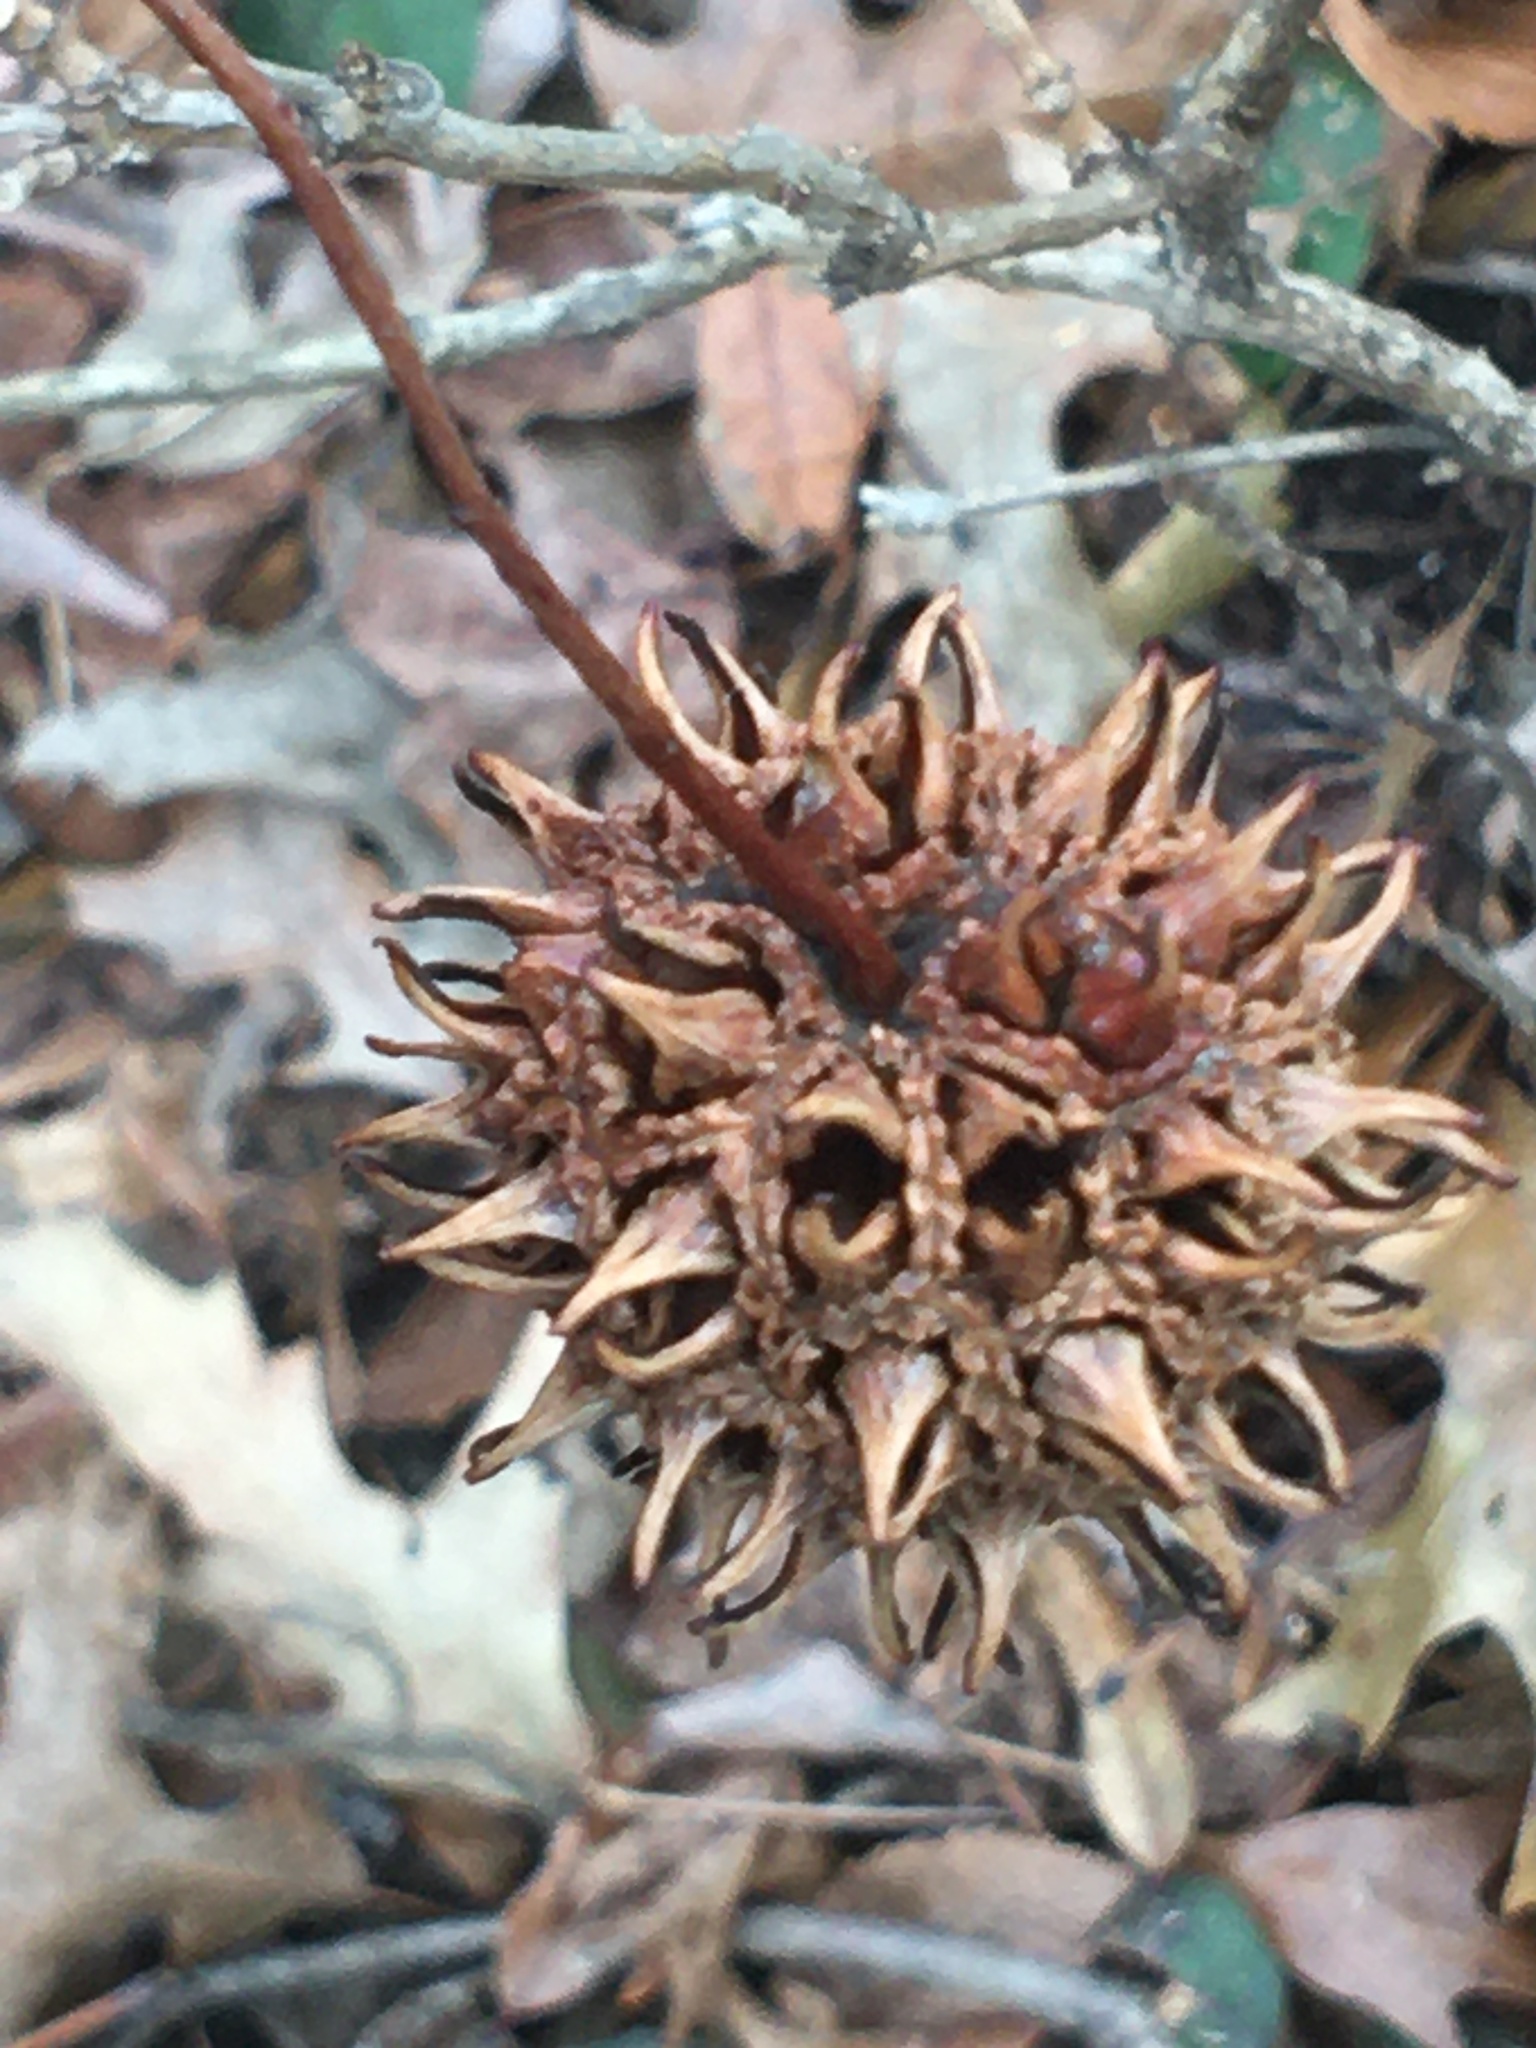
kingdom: Plantae
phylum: Tracheophyta
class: Magnoliopsida
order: Saxifragales
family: Altingiaceae
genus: Liquidambar
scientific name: Liquidambar styraciflua
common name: Sweet gum
